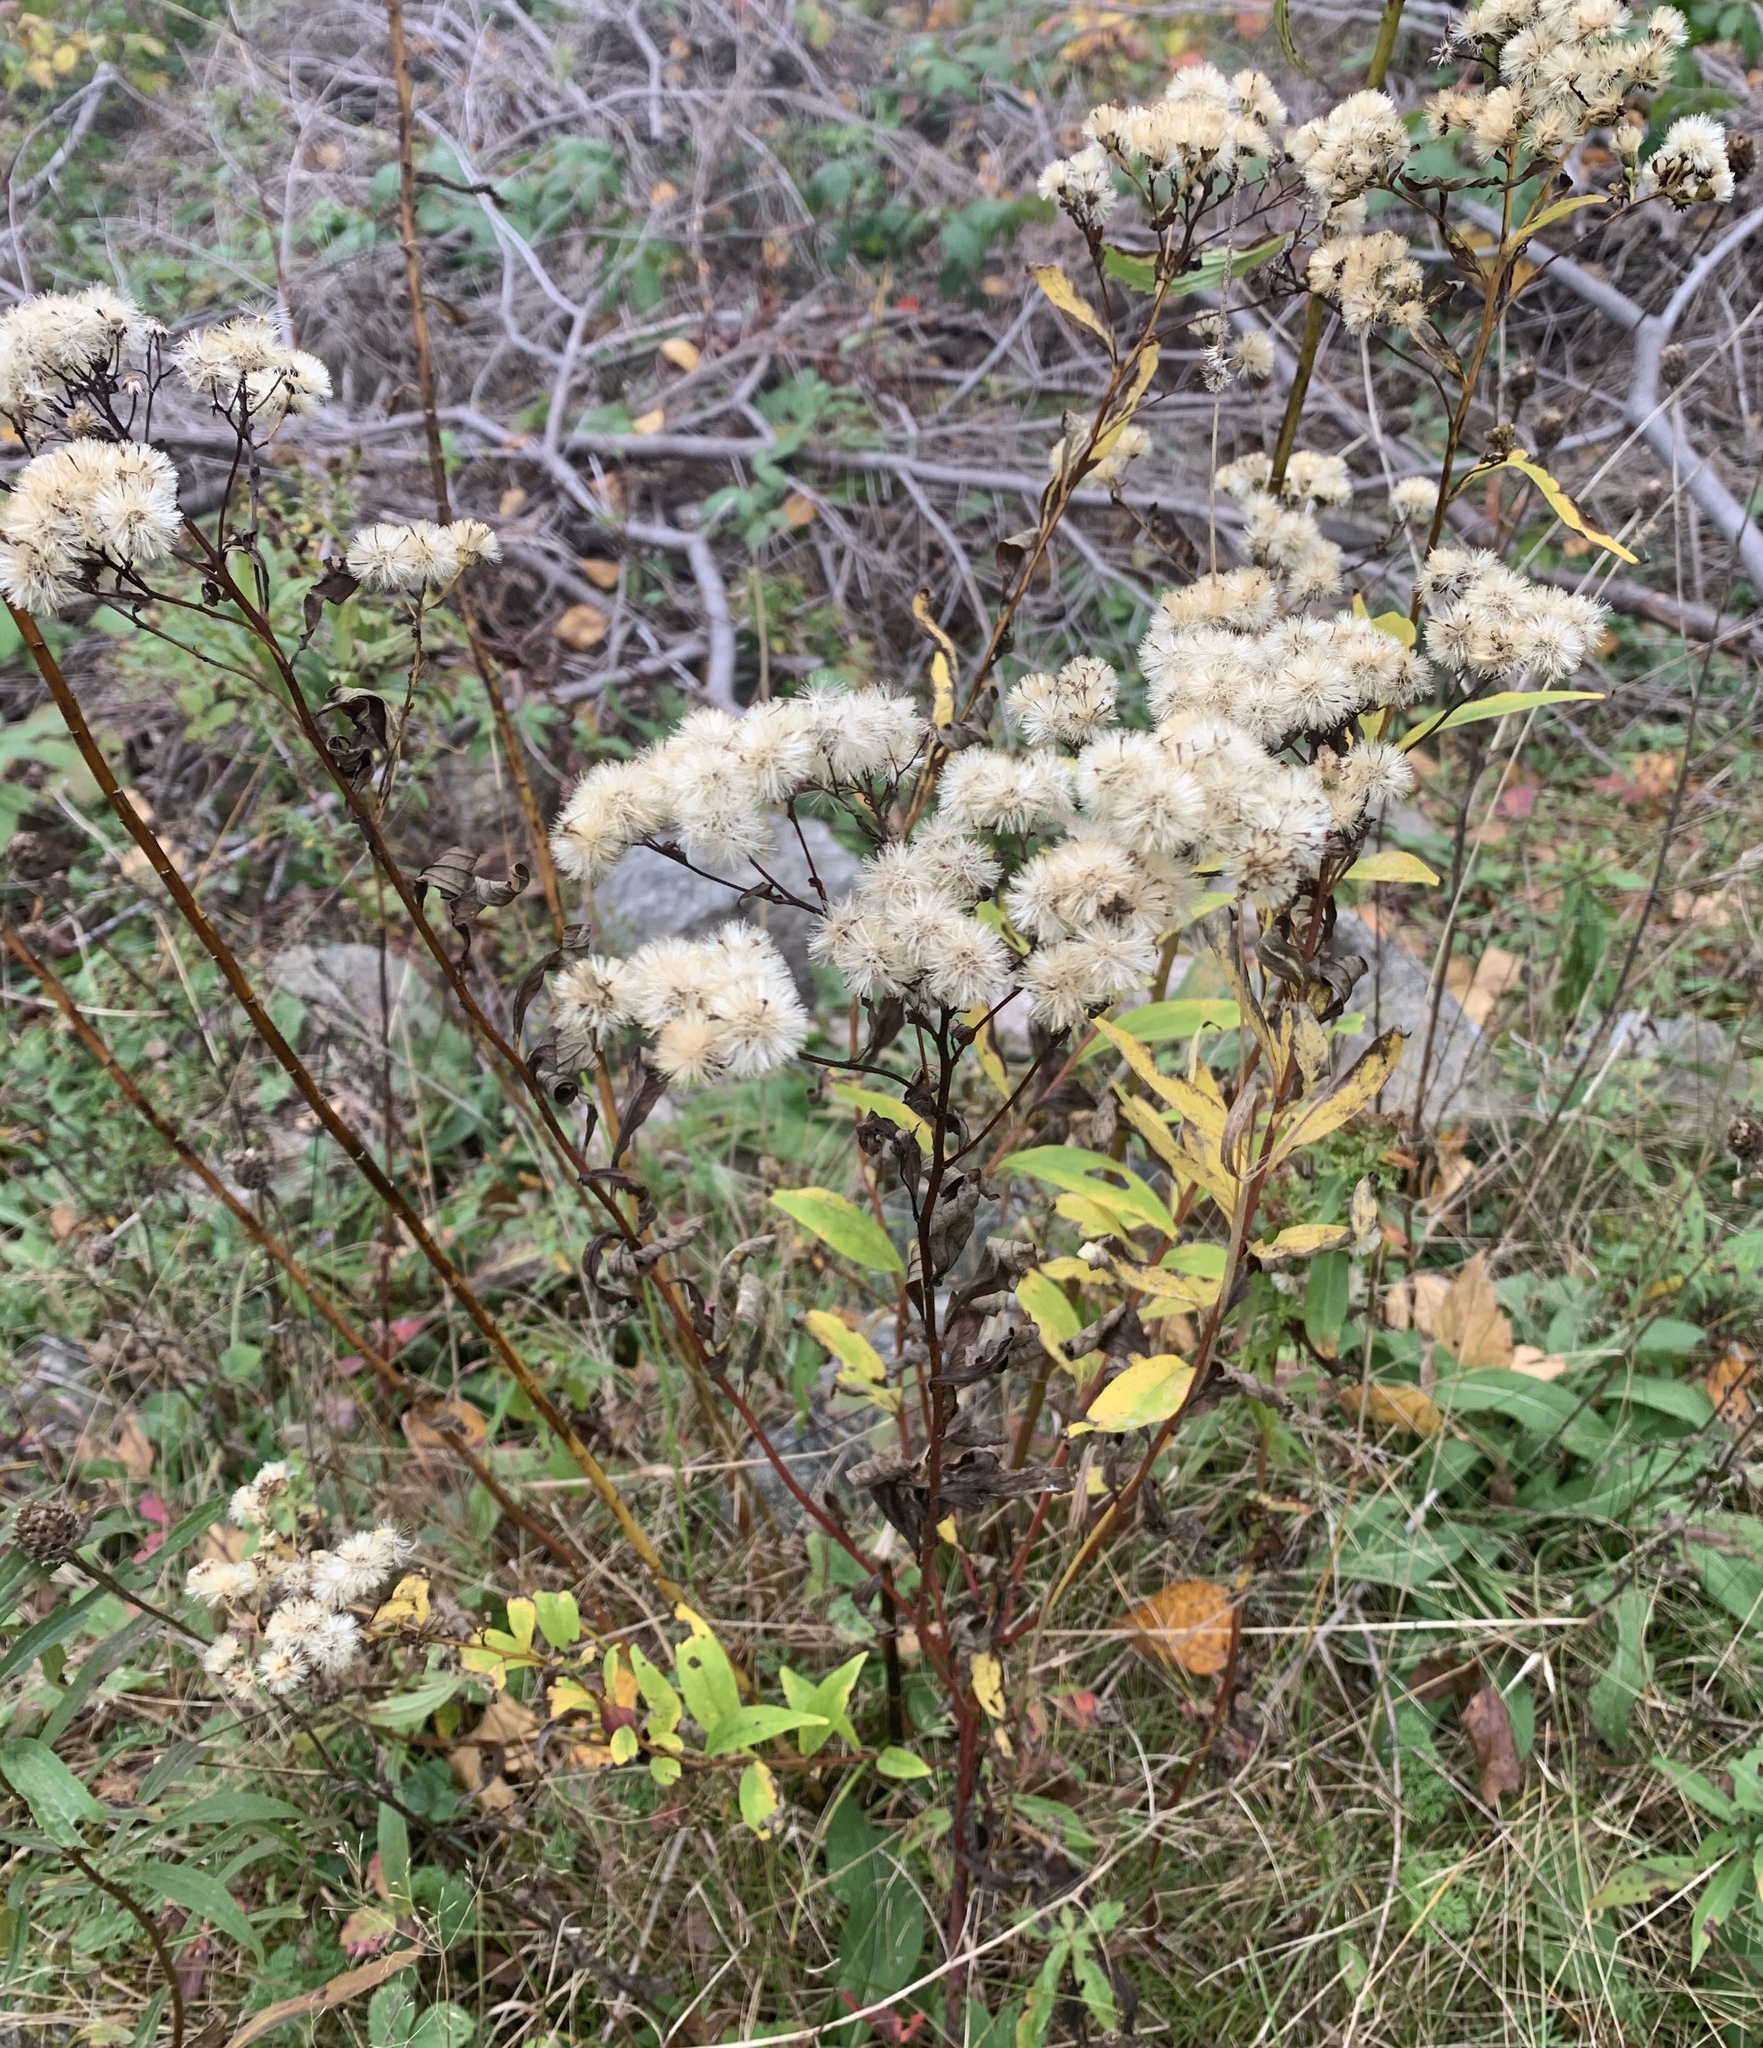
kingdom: Plantae
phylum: Tracheophyta
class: Magnoliopsida
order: Asterales
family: Asteraceae
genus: Doellingeria
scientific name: Doellingeria umbellata
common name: Flat-top white aster
